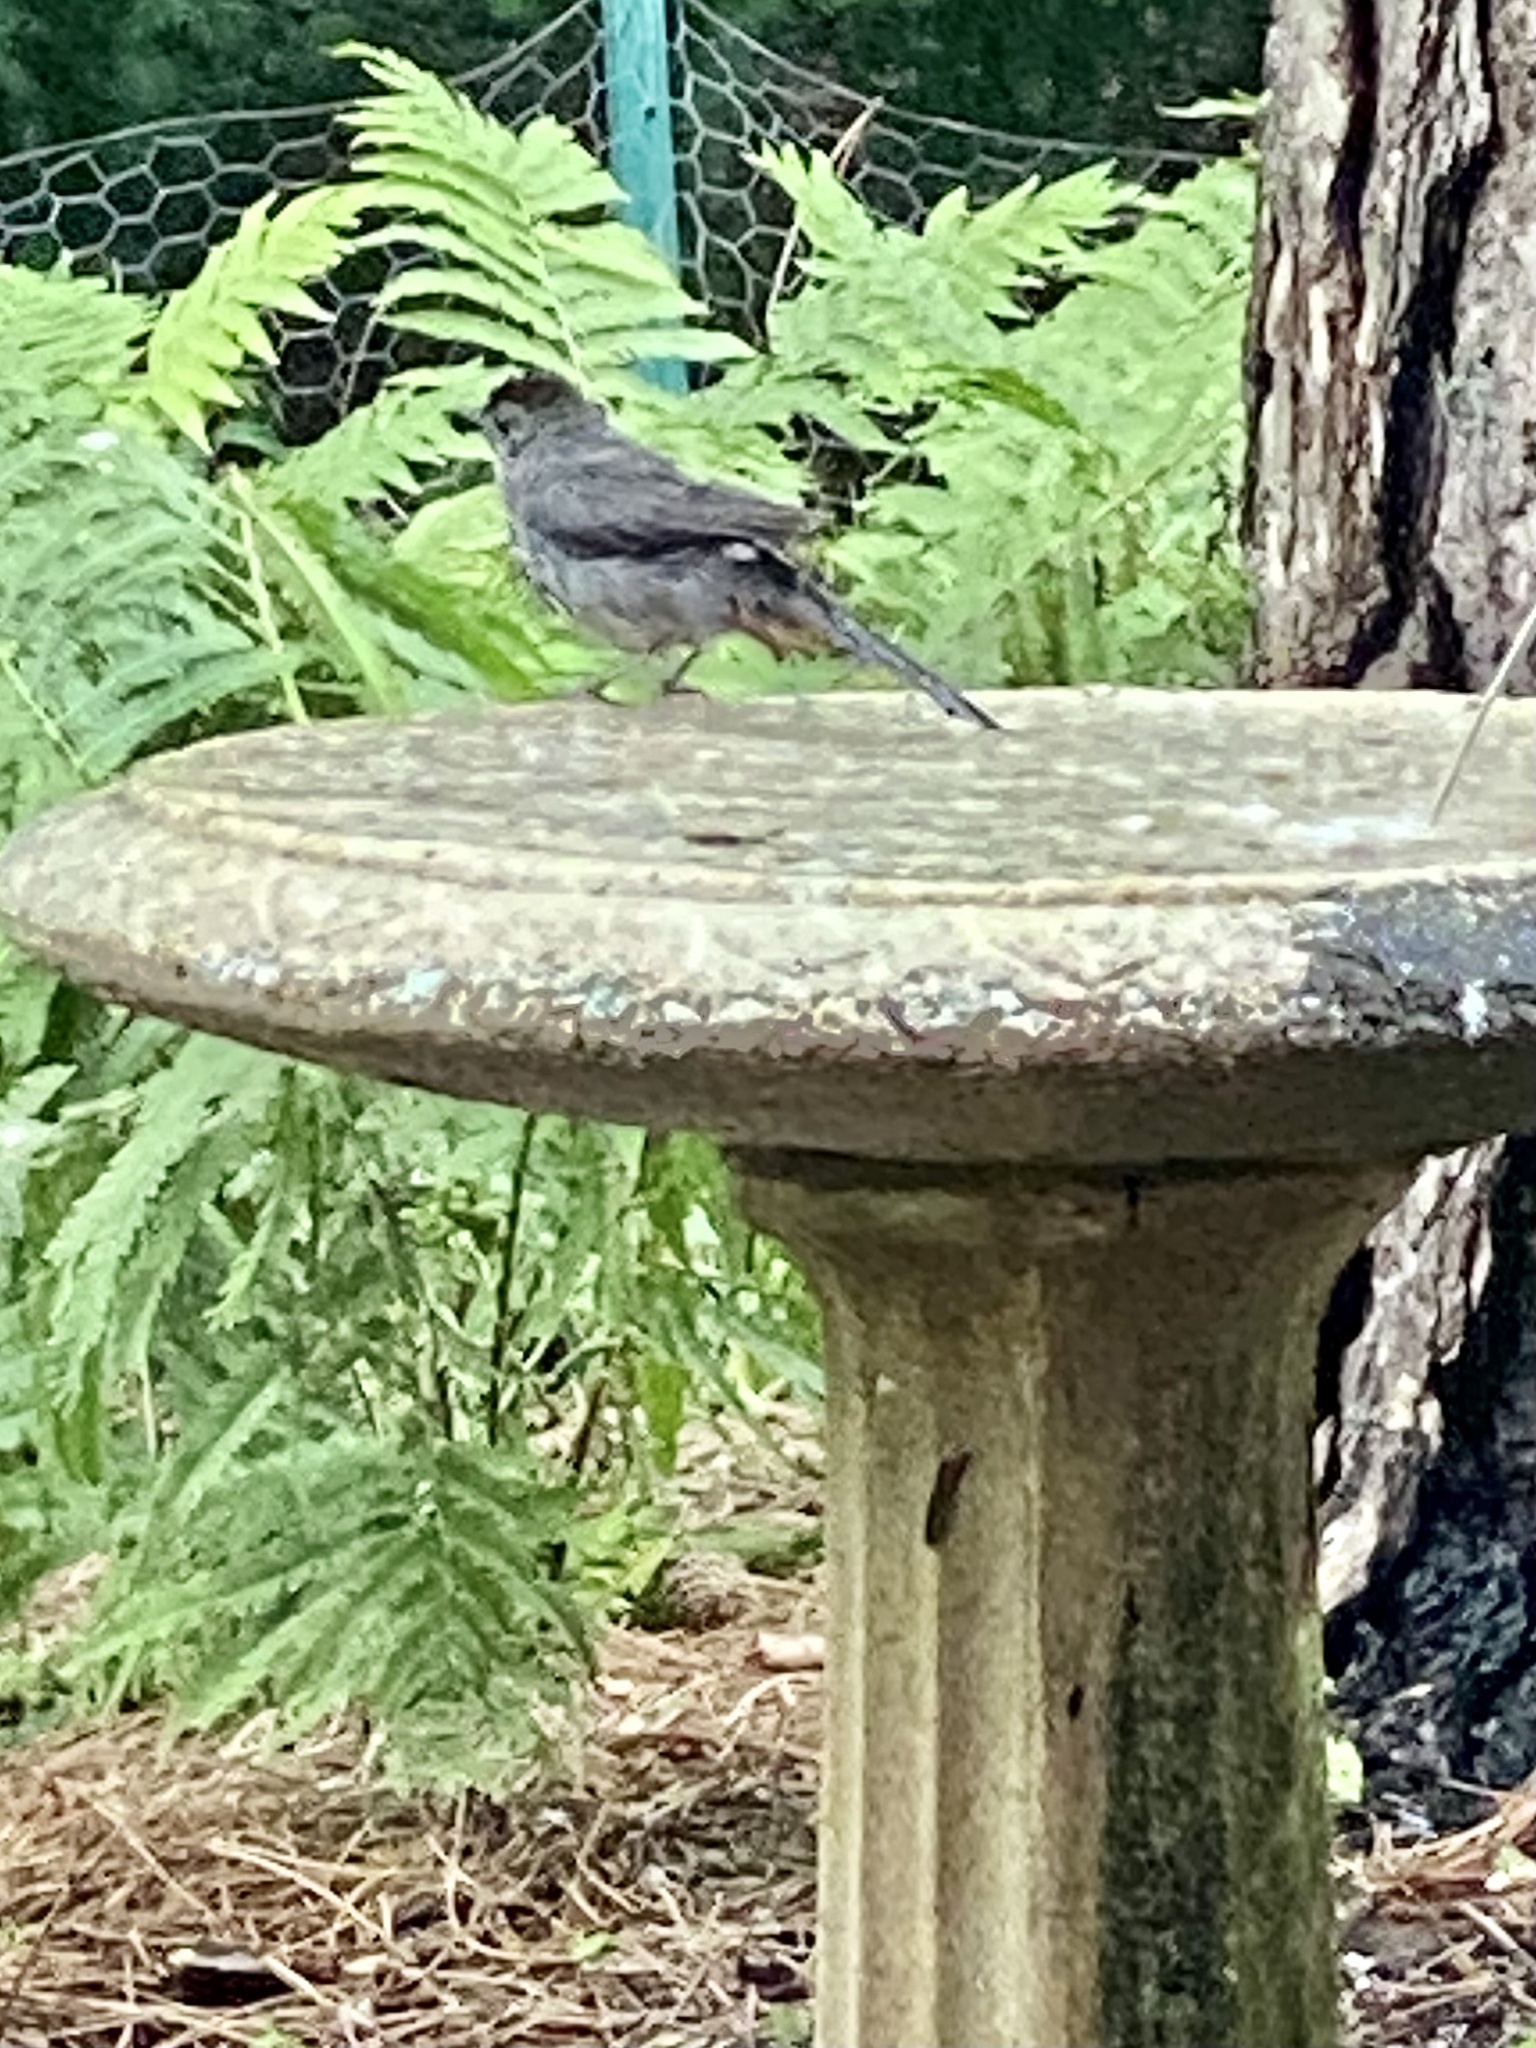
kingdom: Animalia
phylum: Chordata
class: Aves
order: Passeriformes
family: Mimidae
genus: Dumetella
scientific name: Dumetella carolinensis
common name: Gray catbird
